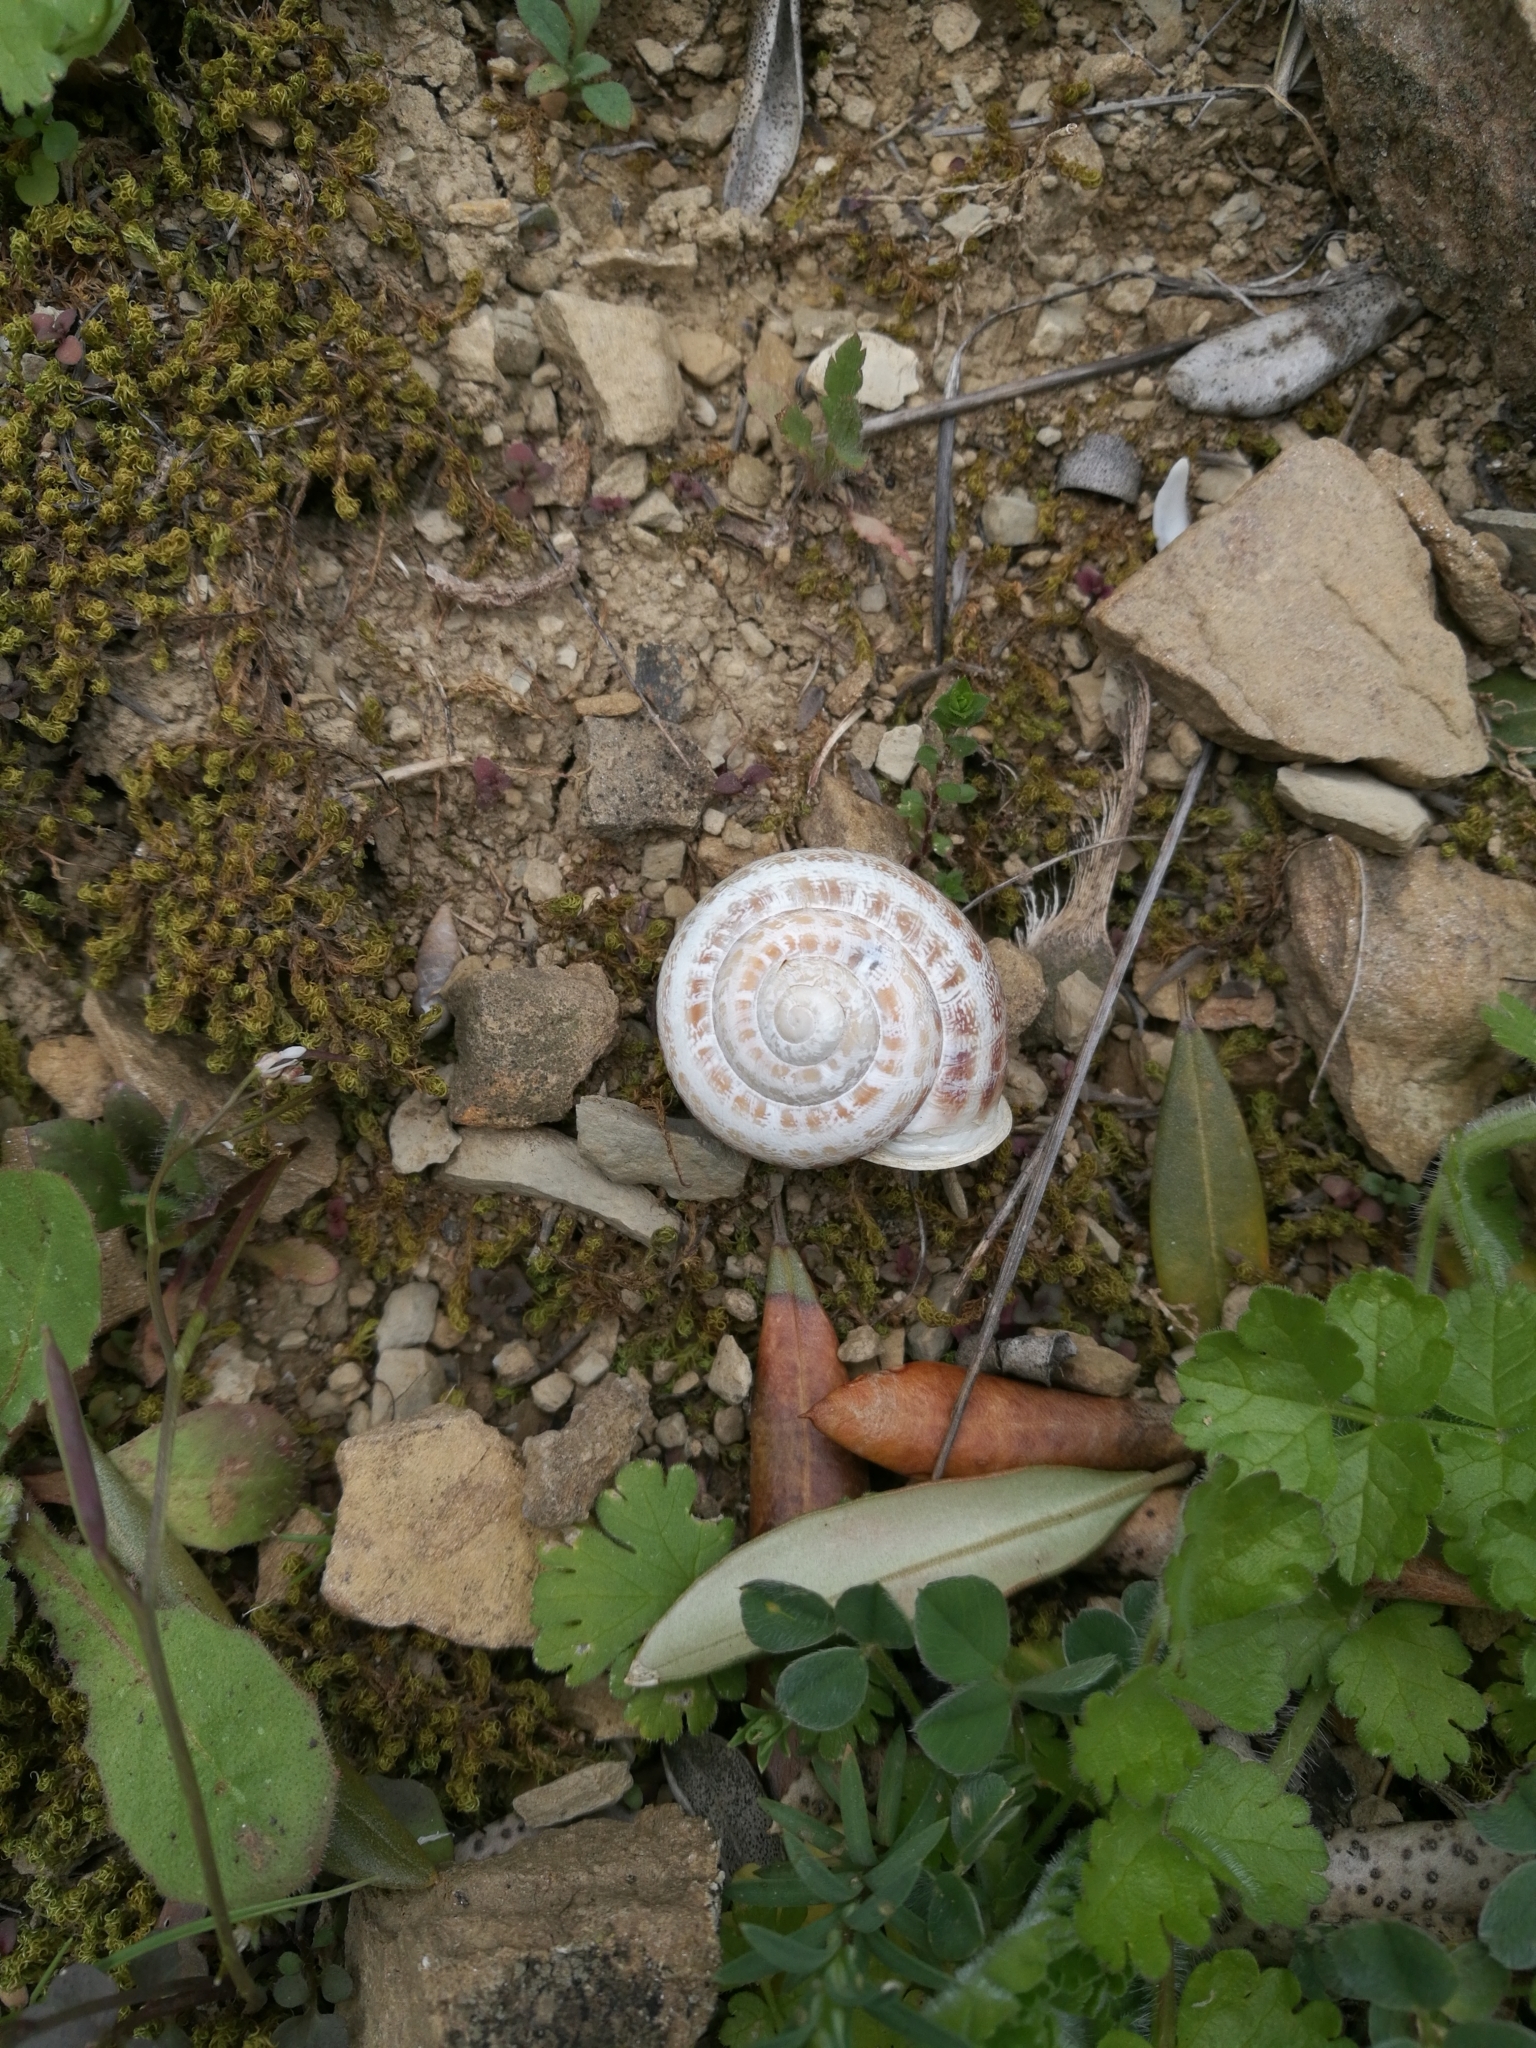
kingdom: Animalia
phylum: Mollusca
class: Gastropoda
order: Stylommatophora
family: Helicidae
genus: Eobania
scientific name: Eobania vermiculata
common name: Chocolateband snail
